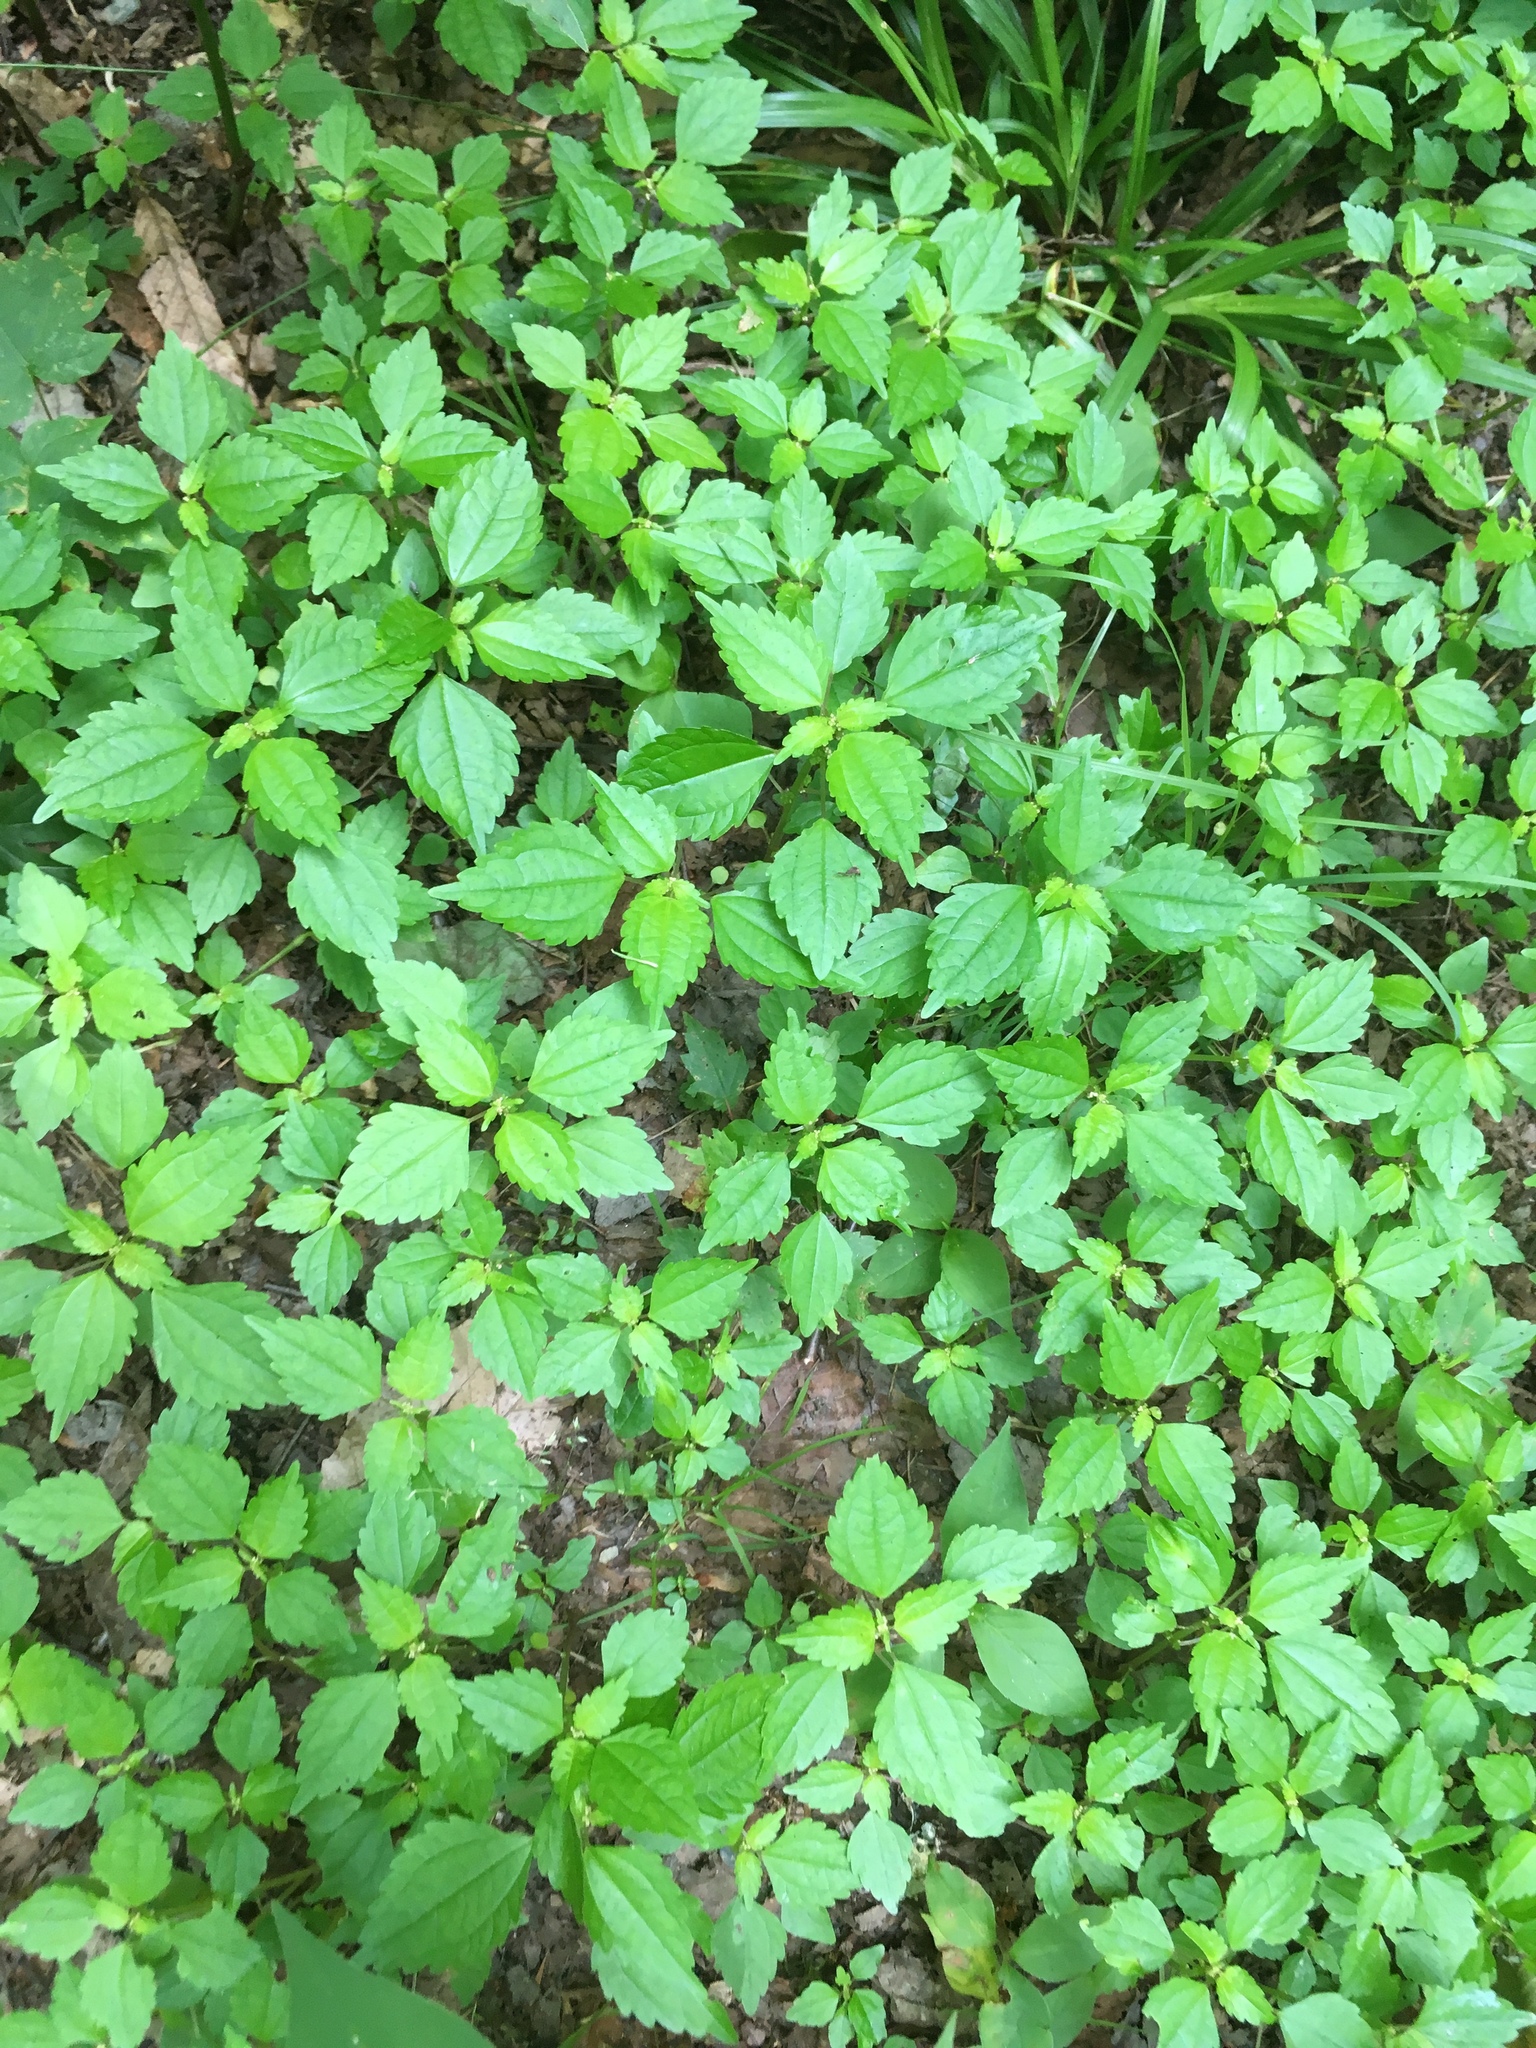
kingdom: Plantae
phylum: Tracheophyta
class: Magnoliopsida
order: Rosales
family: Urticaceae
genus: Pilea
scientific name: Pilea pumila
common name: Clearweed
